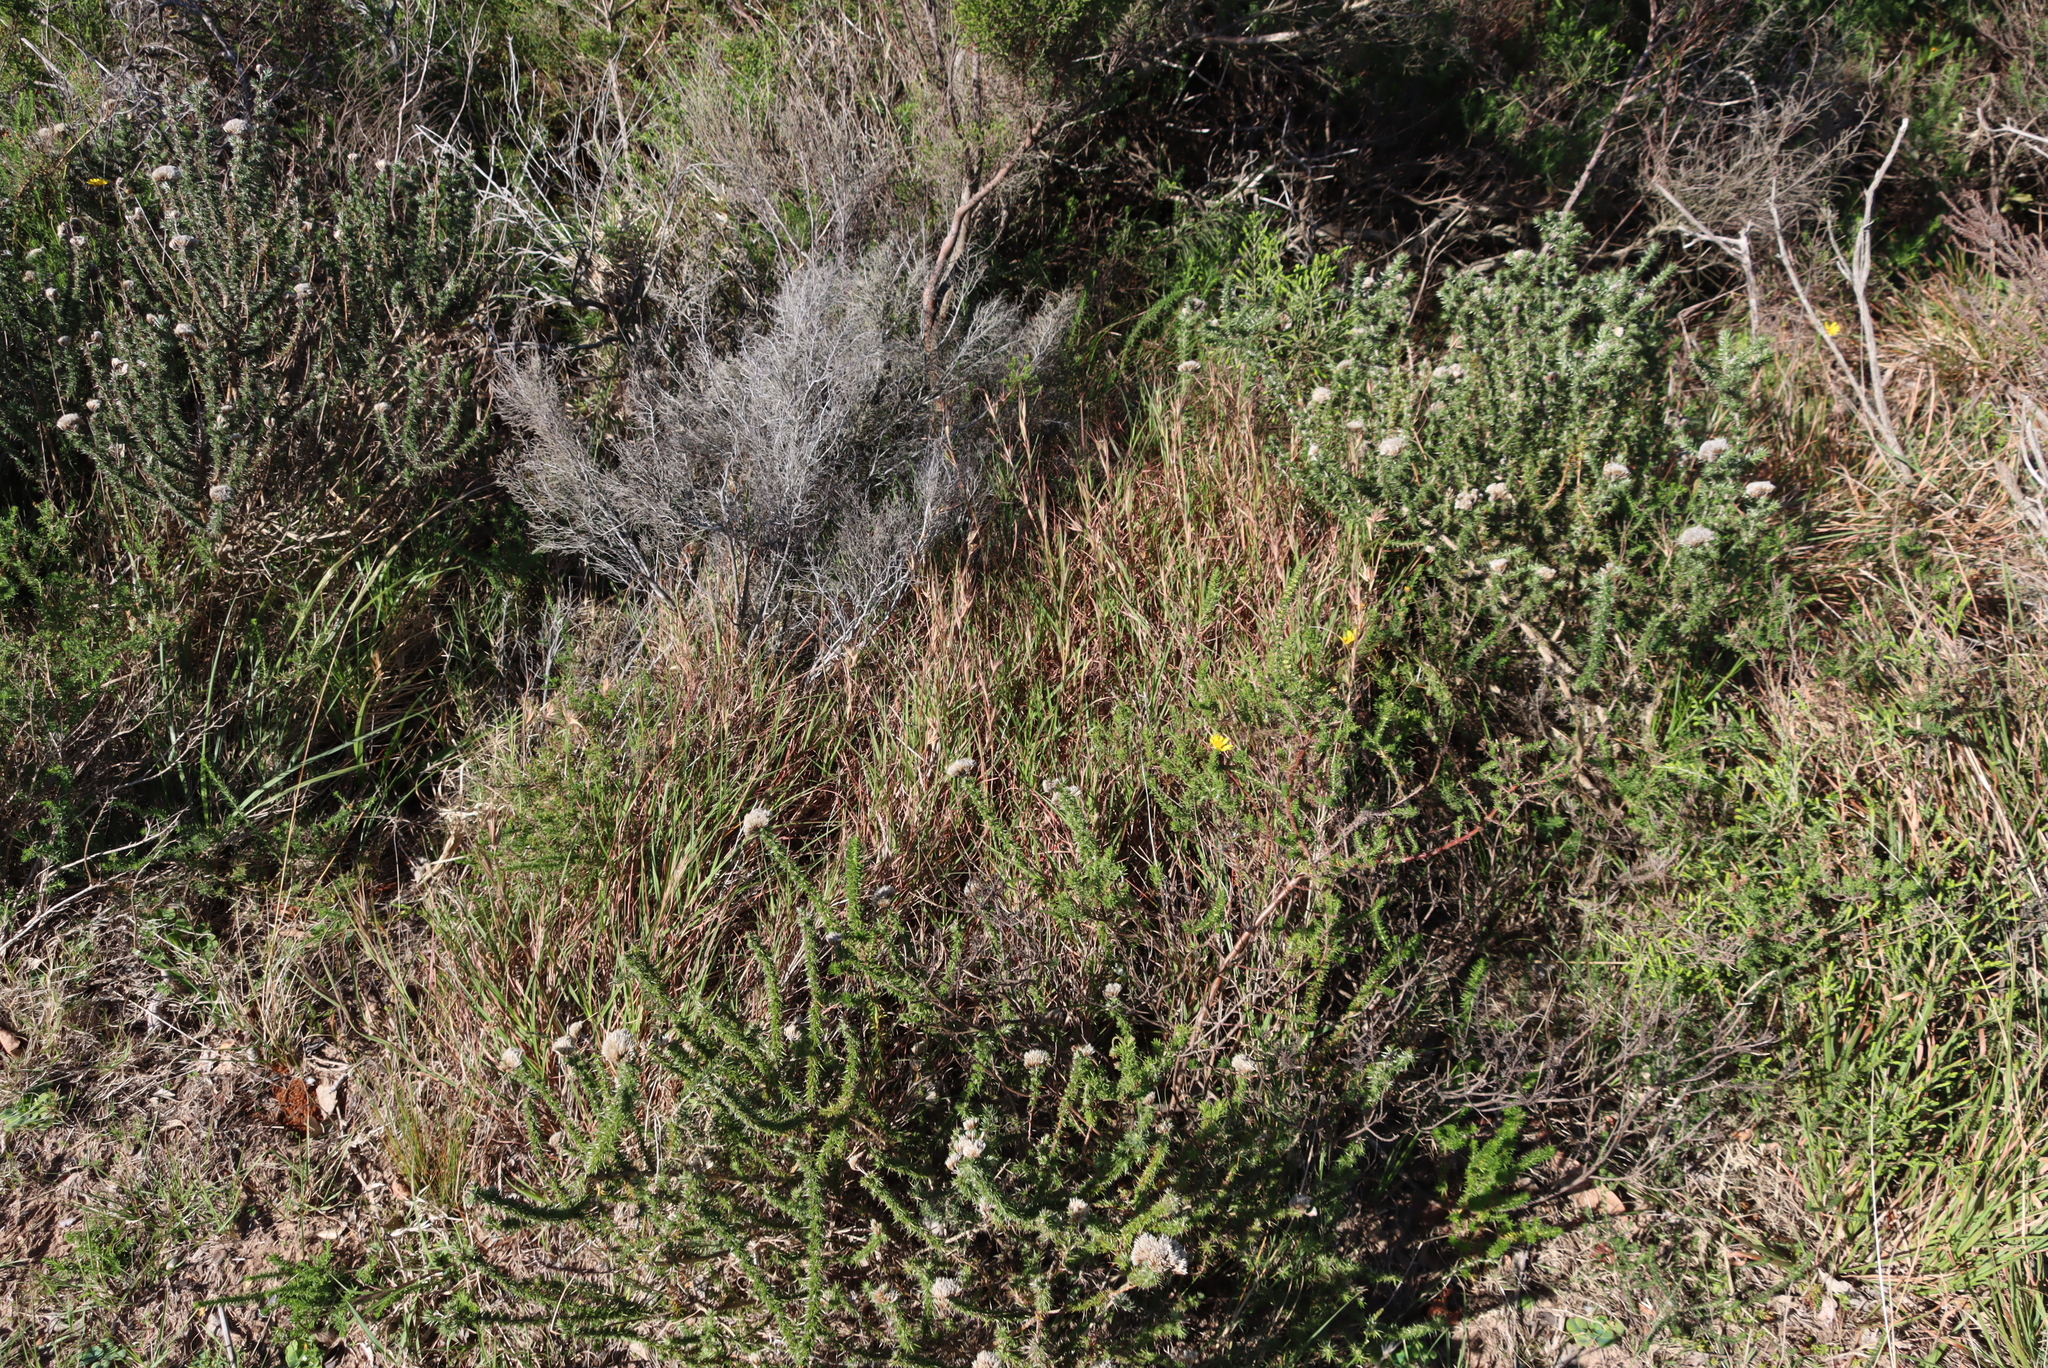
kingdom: Plantae
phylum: Tracheophyta
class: Liliopsida
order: Poales
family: Poaceae
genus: Themeda
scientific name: Themeda triandra
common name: Kangaroo grass
